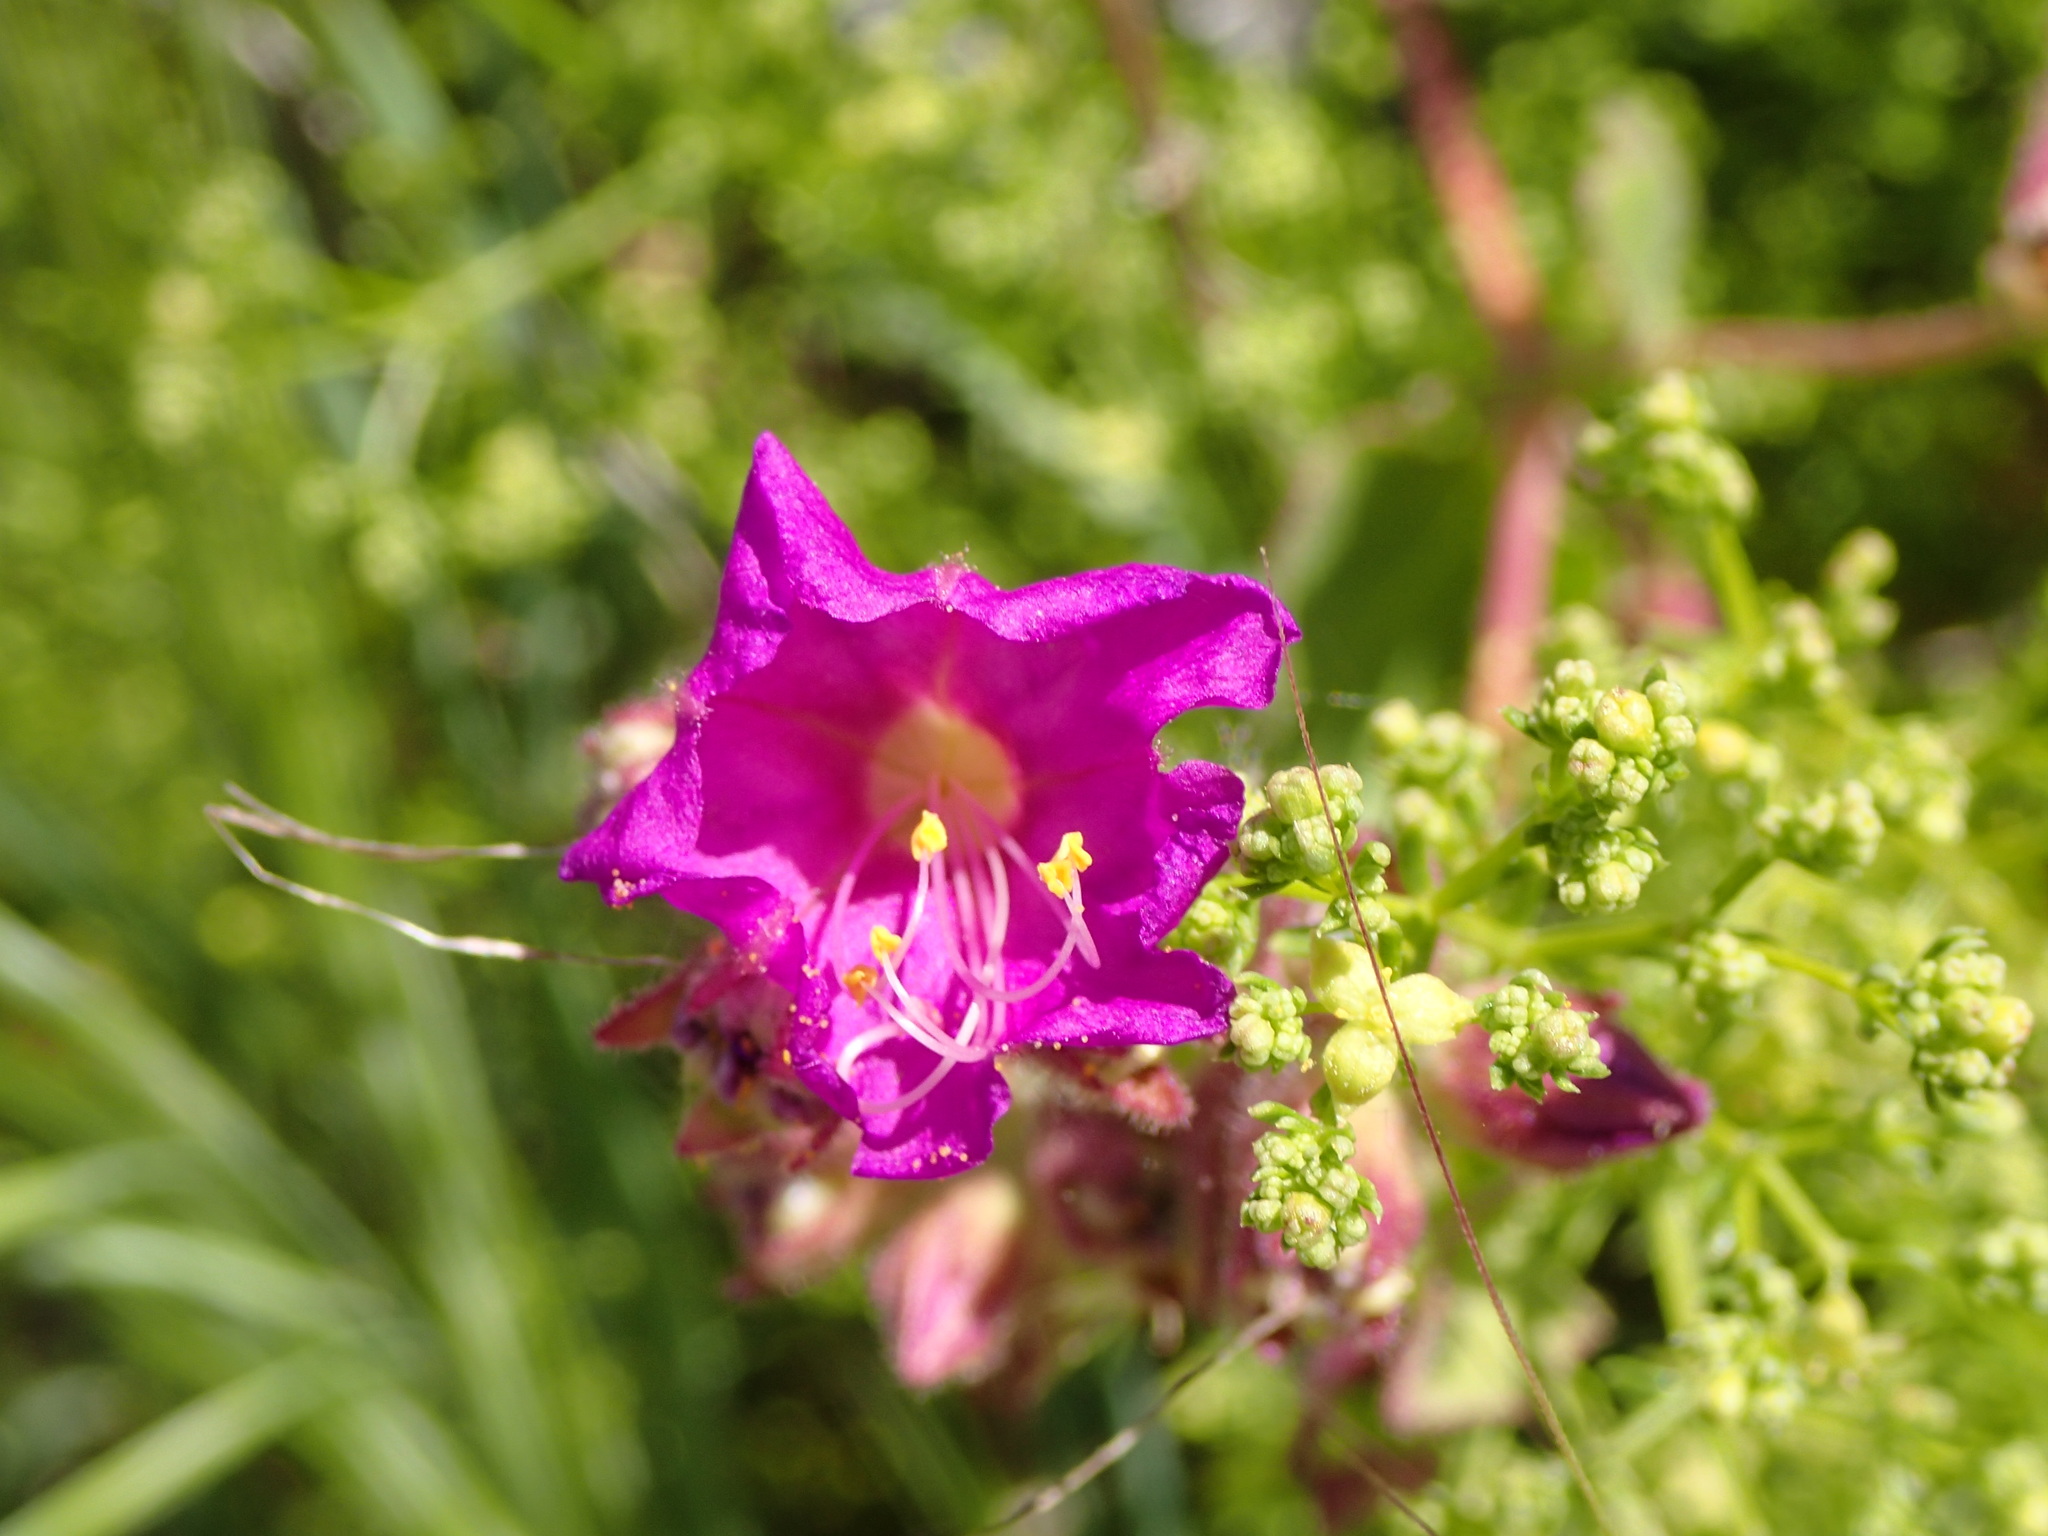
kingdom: Plantae
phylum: Tracheophyta
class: Magnoliopsida
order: Caryophyllales
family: Nyctaginaceae
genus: Mirabilis
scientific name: Mirabilis laevis
